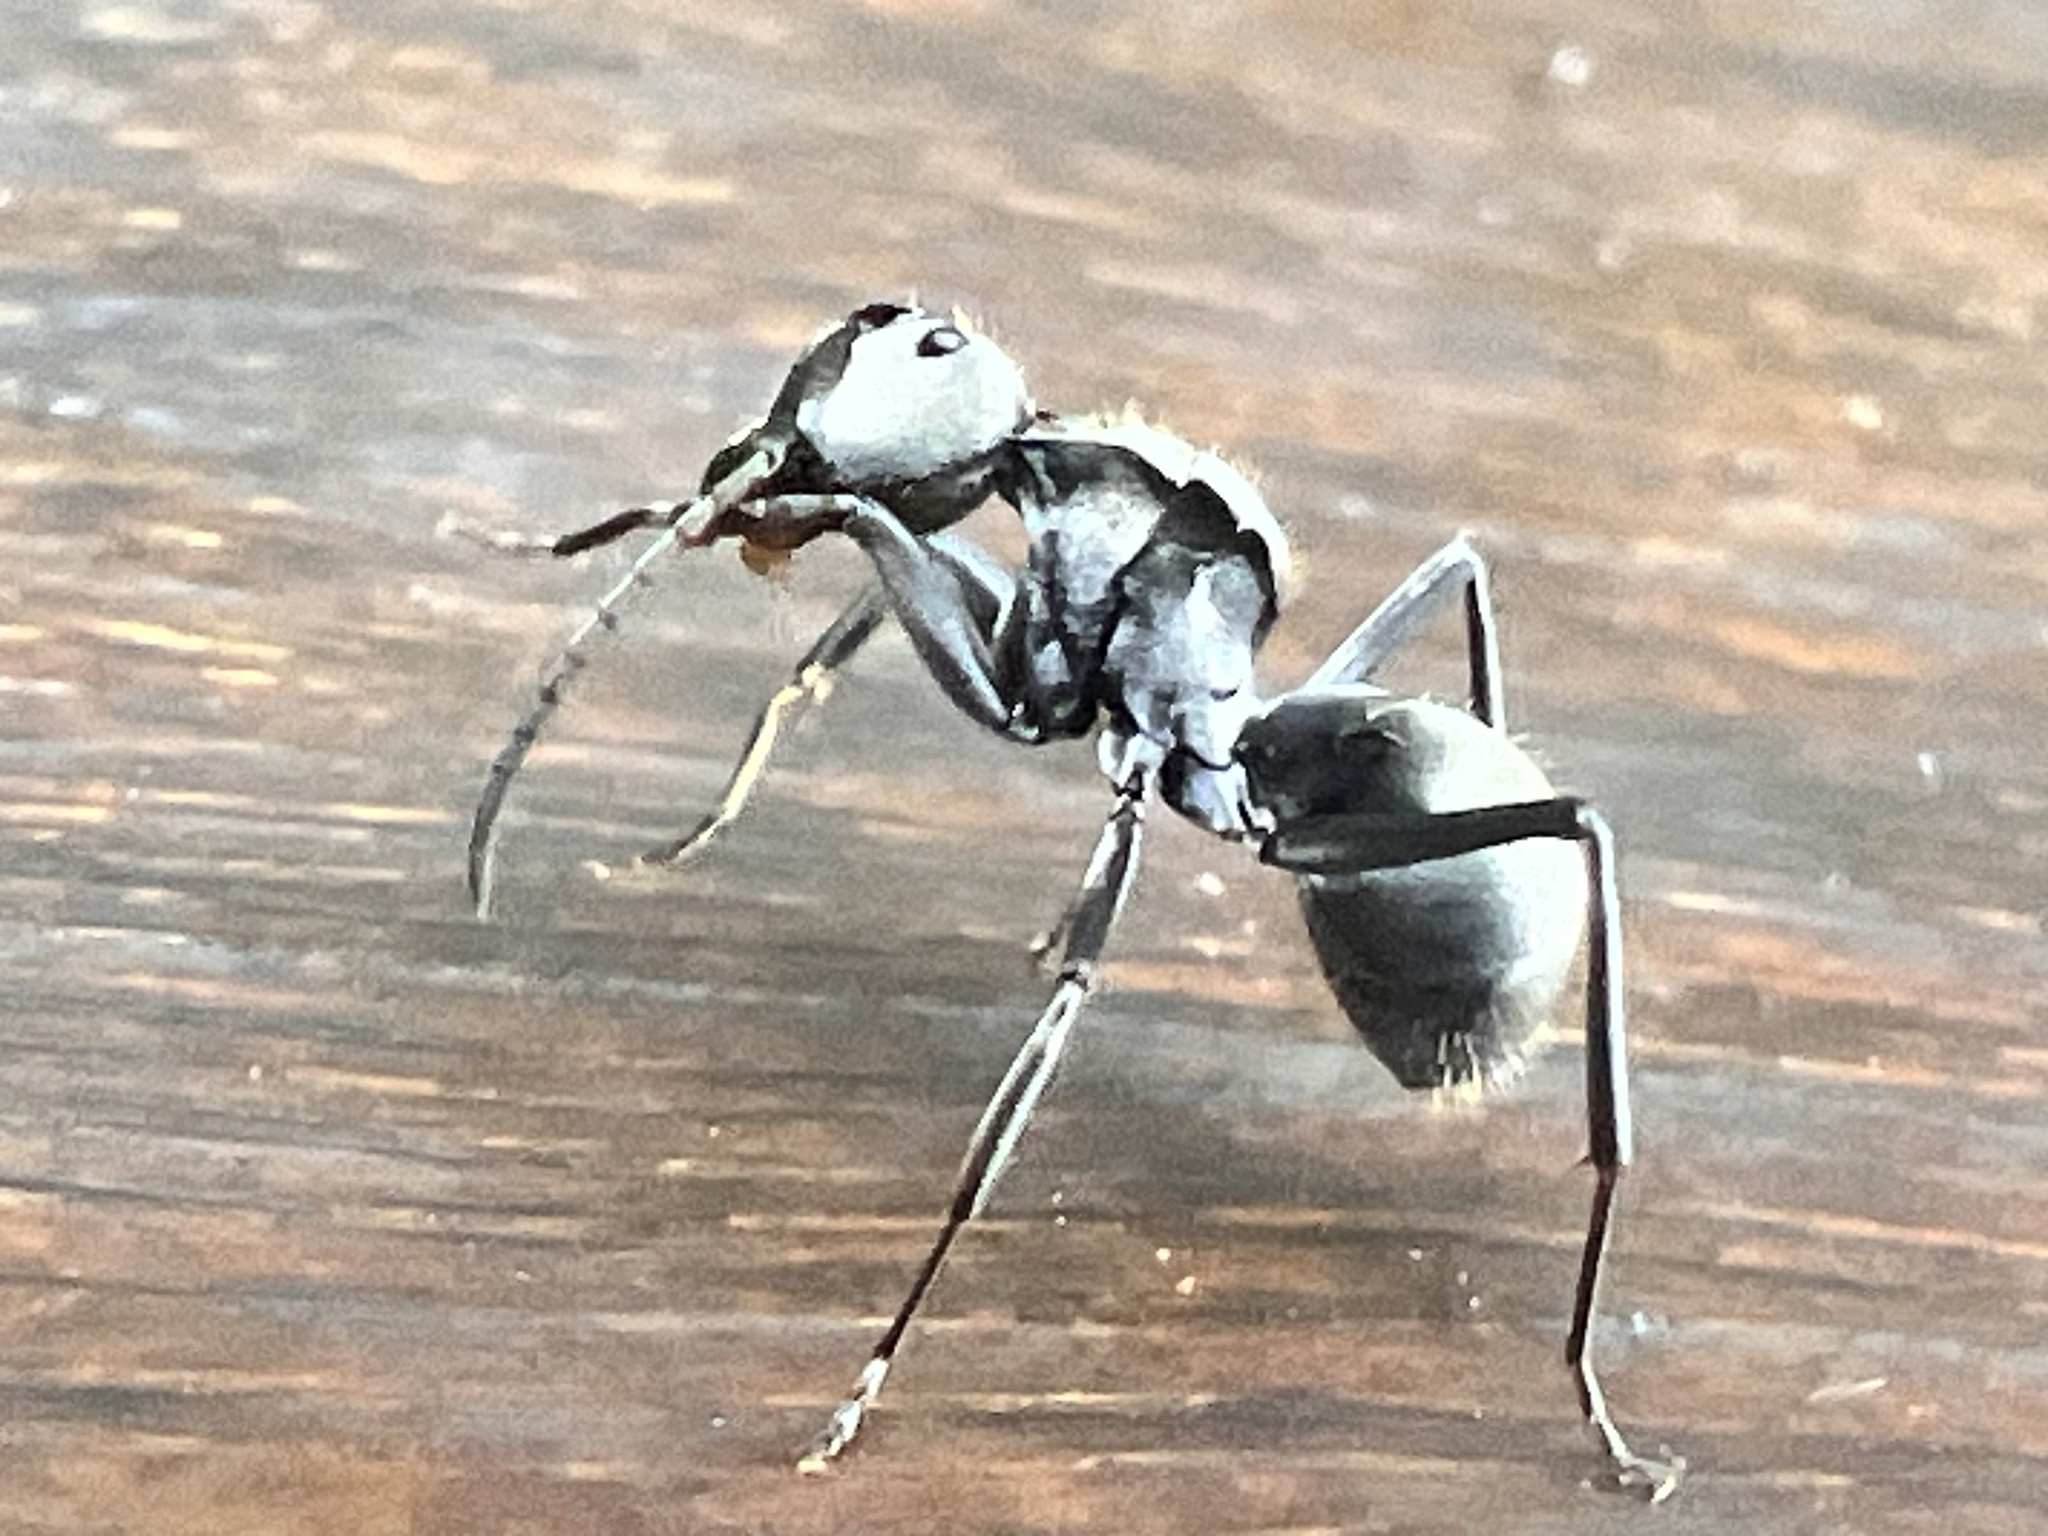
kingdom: Animalia
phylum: Arthropoda
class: Insecta
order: Hymenoptera
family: Formicidae
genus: Polyrhachis
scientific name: Polyrhachis foreli
